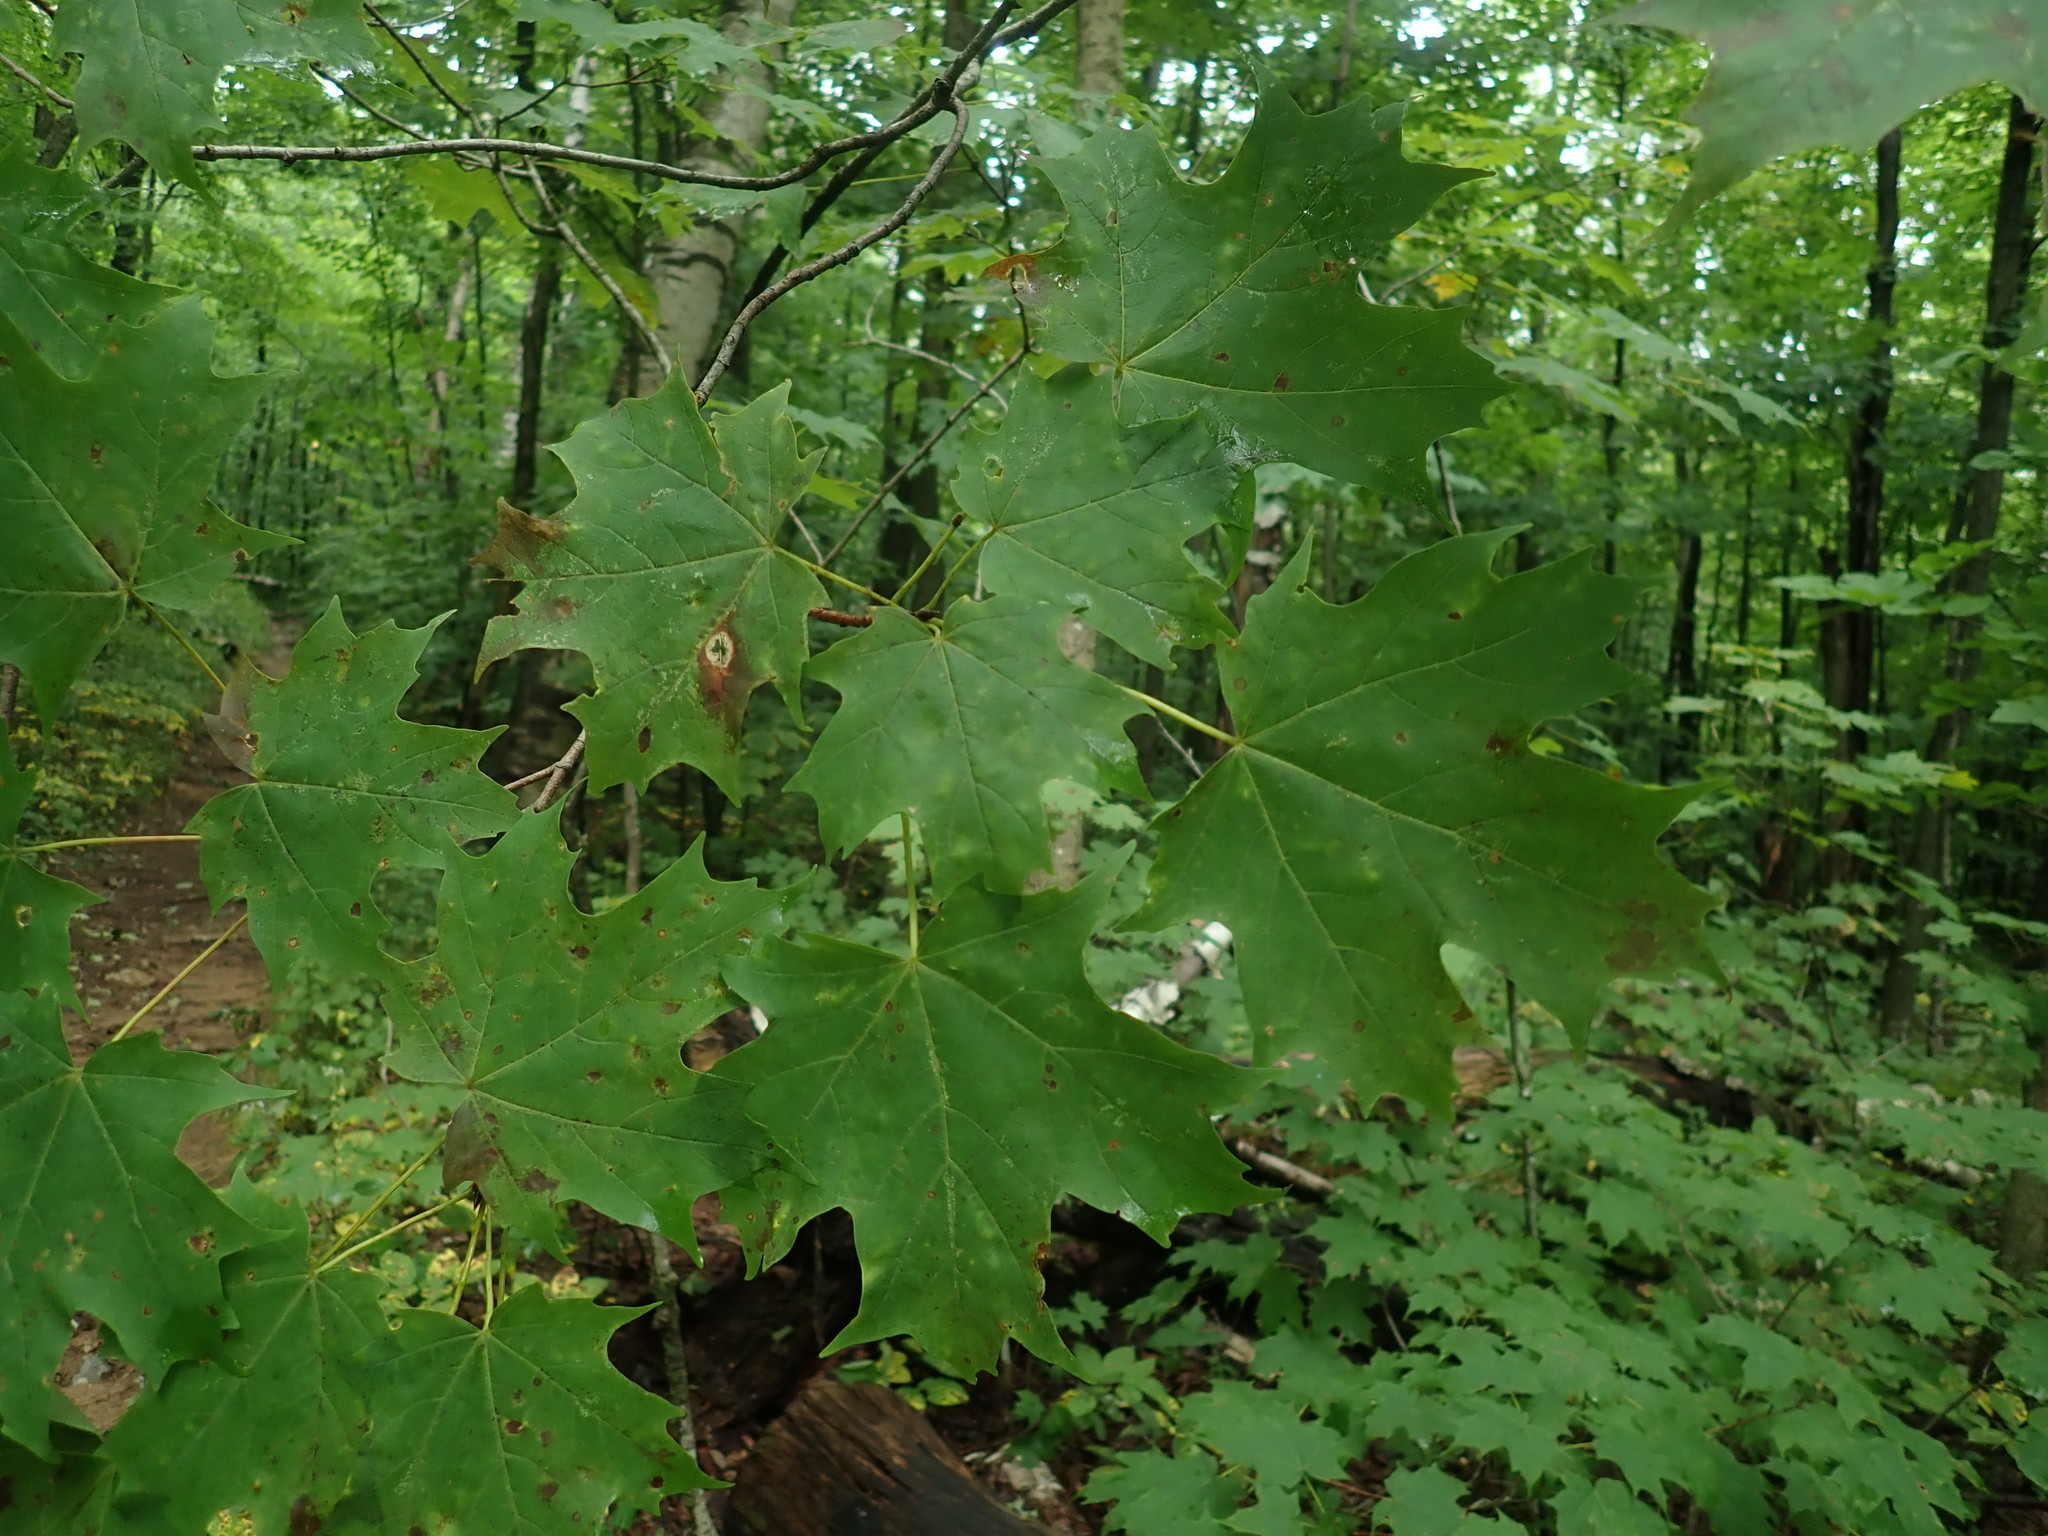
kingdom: Plantae
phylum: Tracheophyta
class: Magnoliopsida
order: Sapindales
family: Sapindaceae
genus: Acer
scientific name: Acer saccharum
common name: Sugar maple
